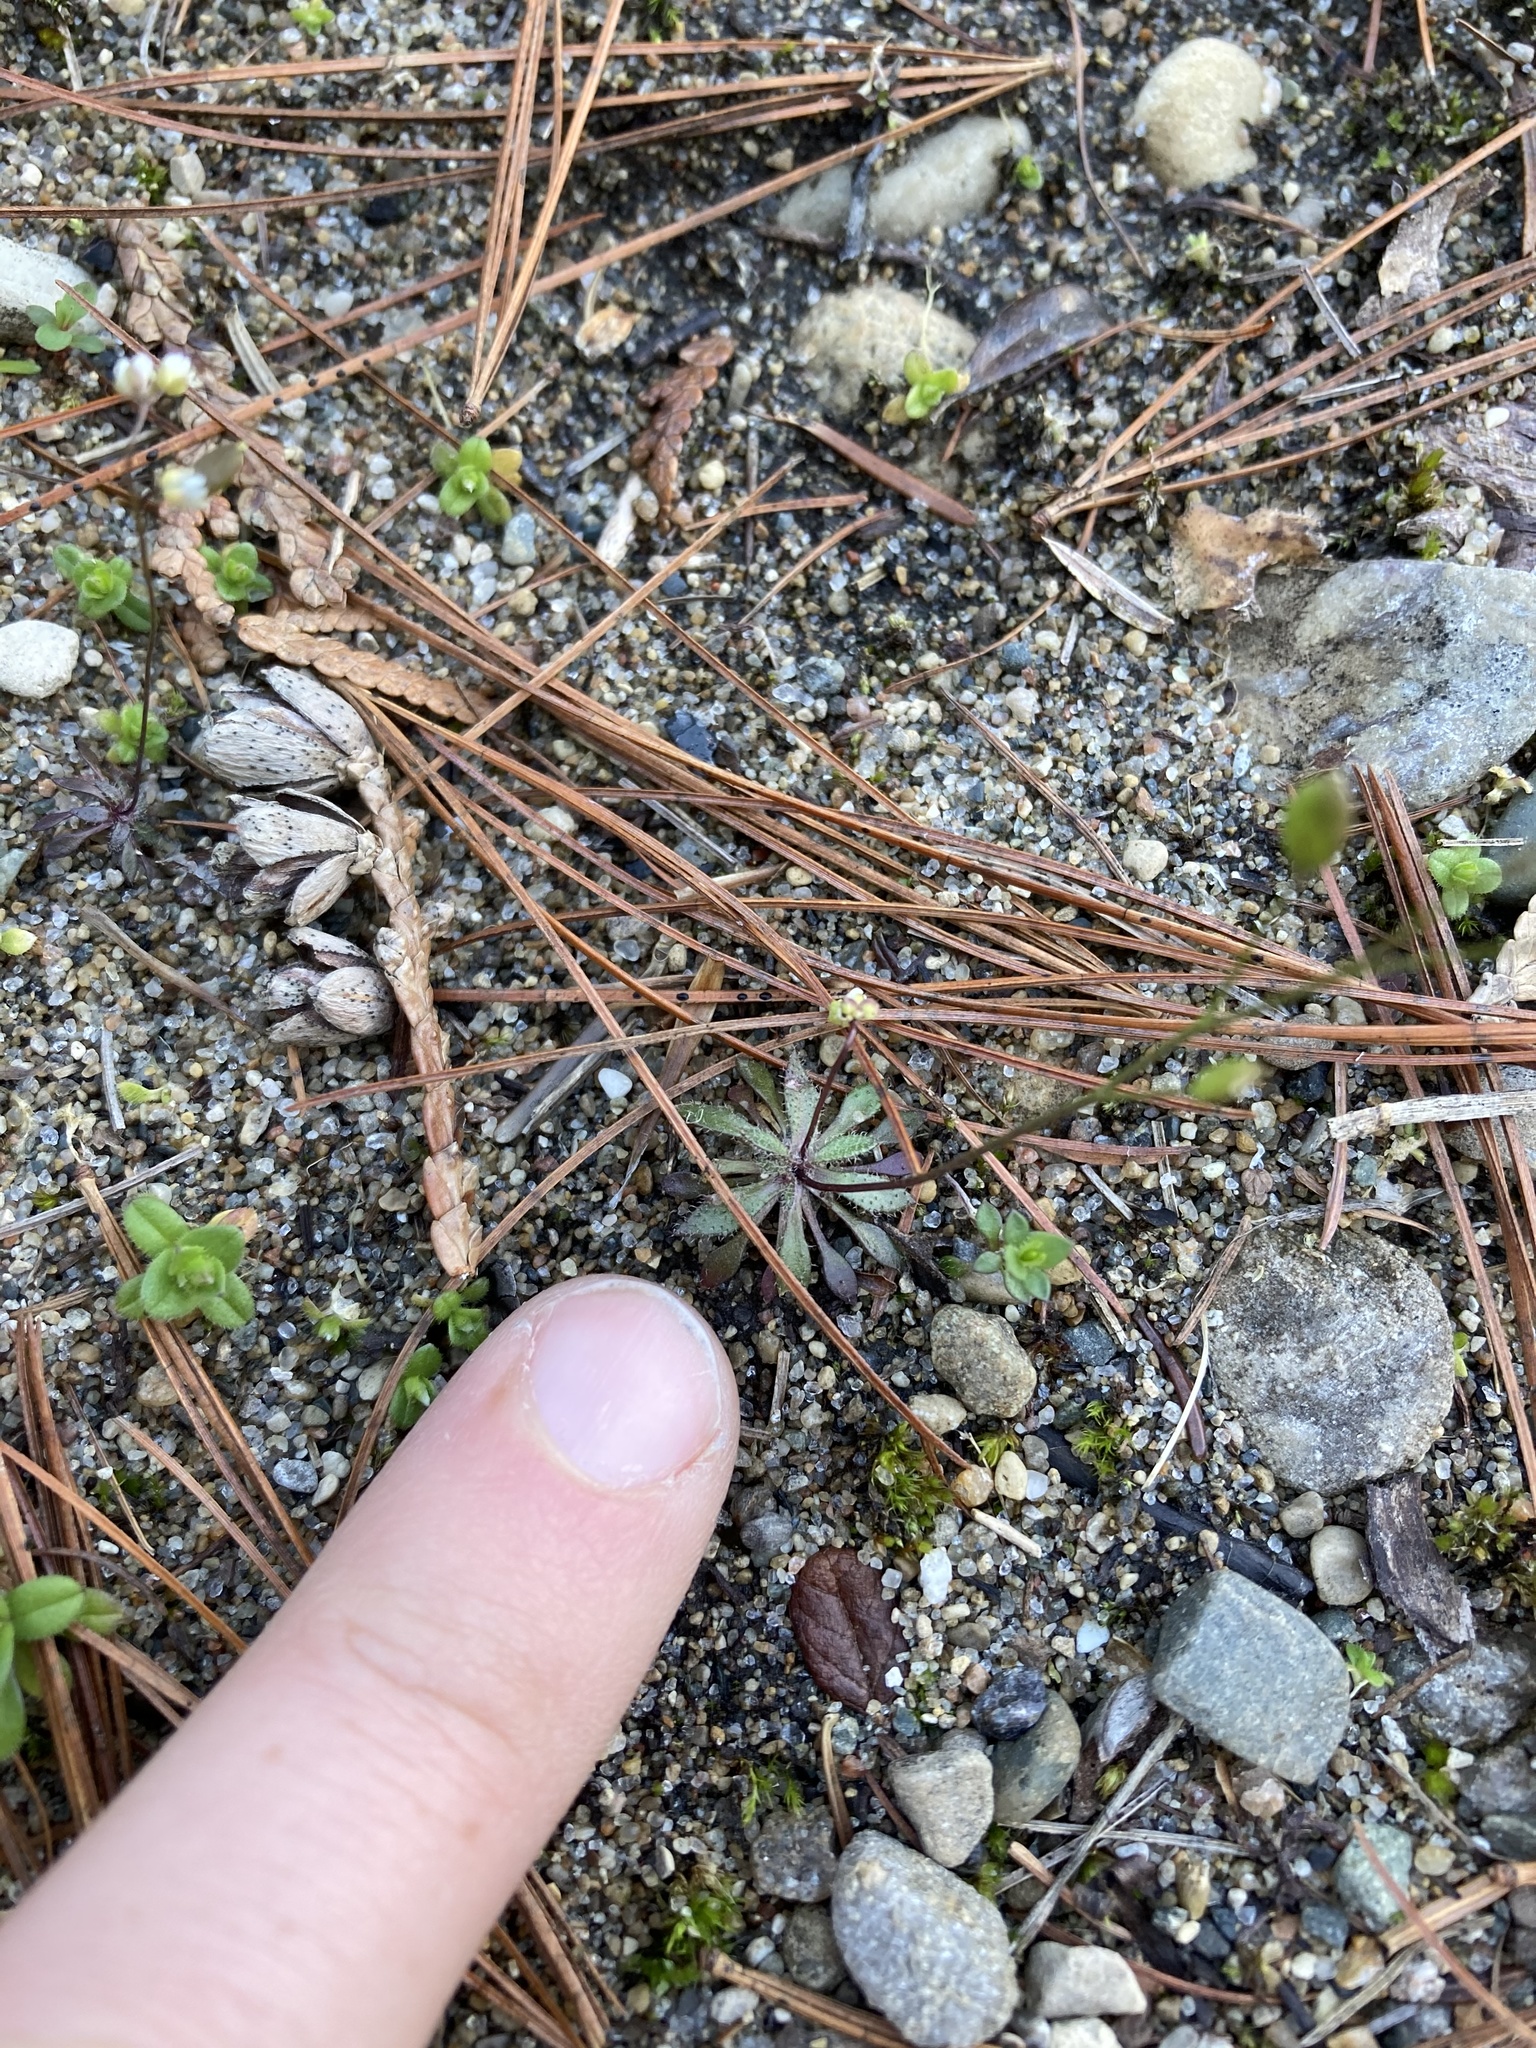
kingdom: Plantae
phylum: Tracheophyta
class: Magnoliopsida
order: Brassicales
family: Brassicaceae
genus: Draba
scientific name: Draba verna
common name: Spring draba
